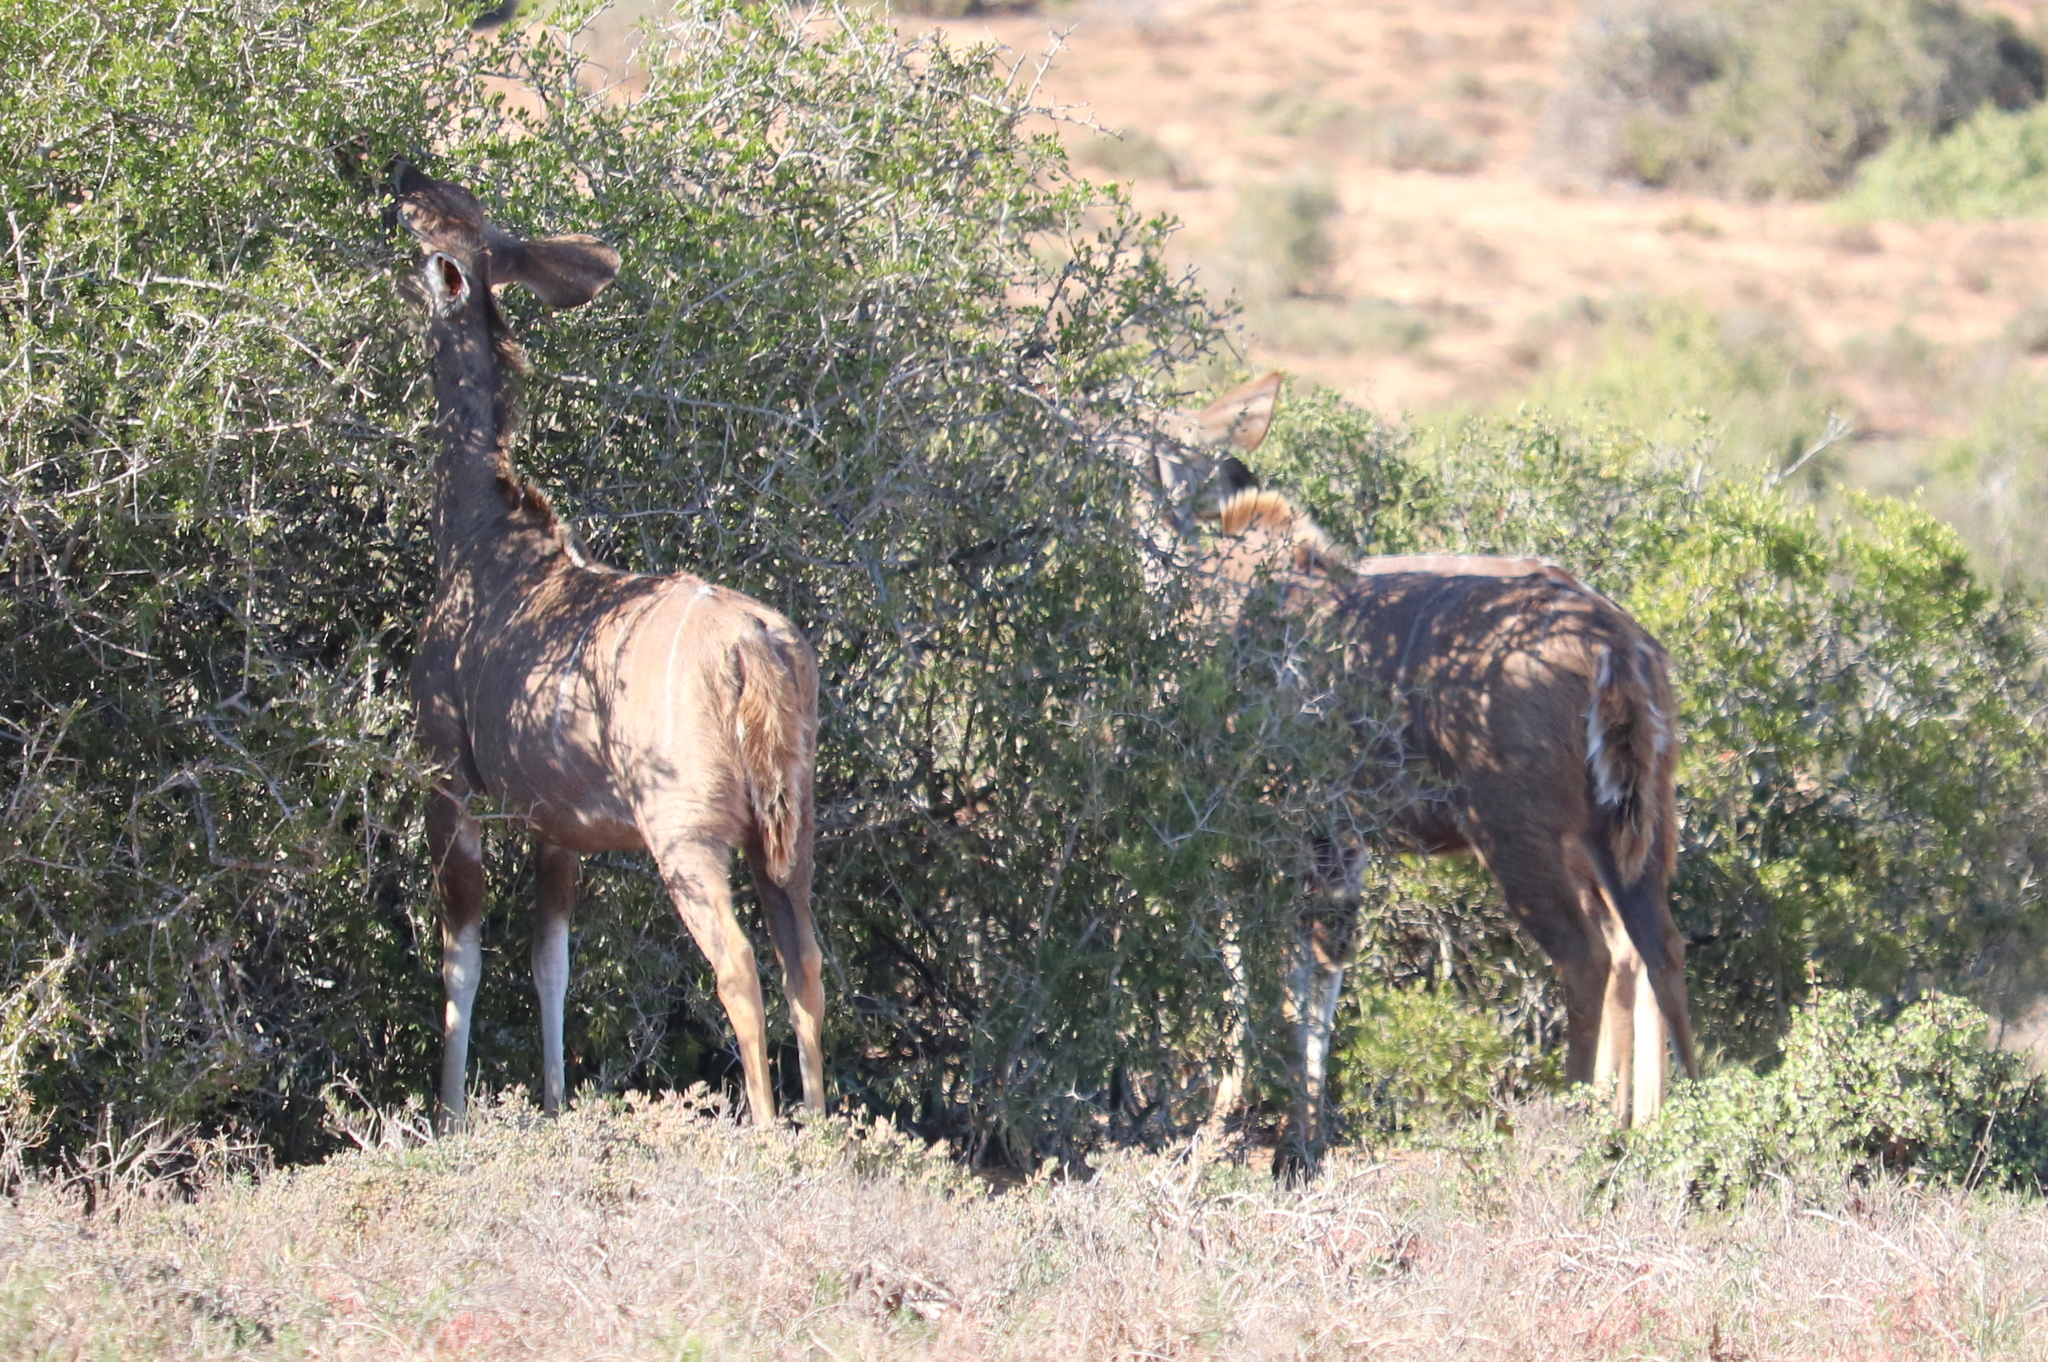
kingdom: Animalia
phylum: Chordata
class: Mammalia
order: Artiodactyla
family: Bovidae
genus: Tragelaphus
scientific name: Tragelaphus strepsiceros
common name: Greater kudu
